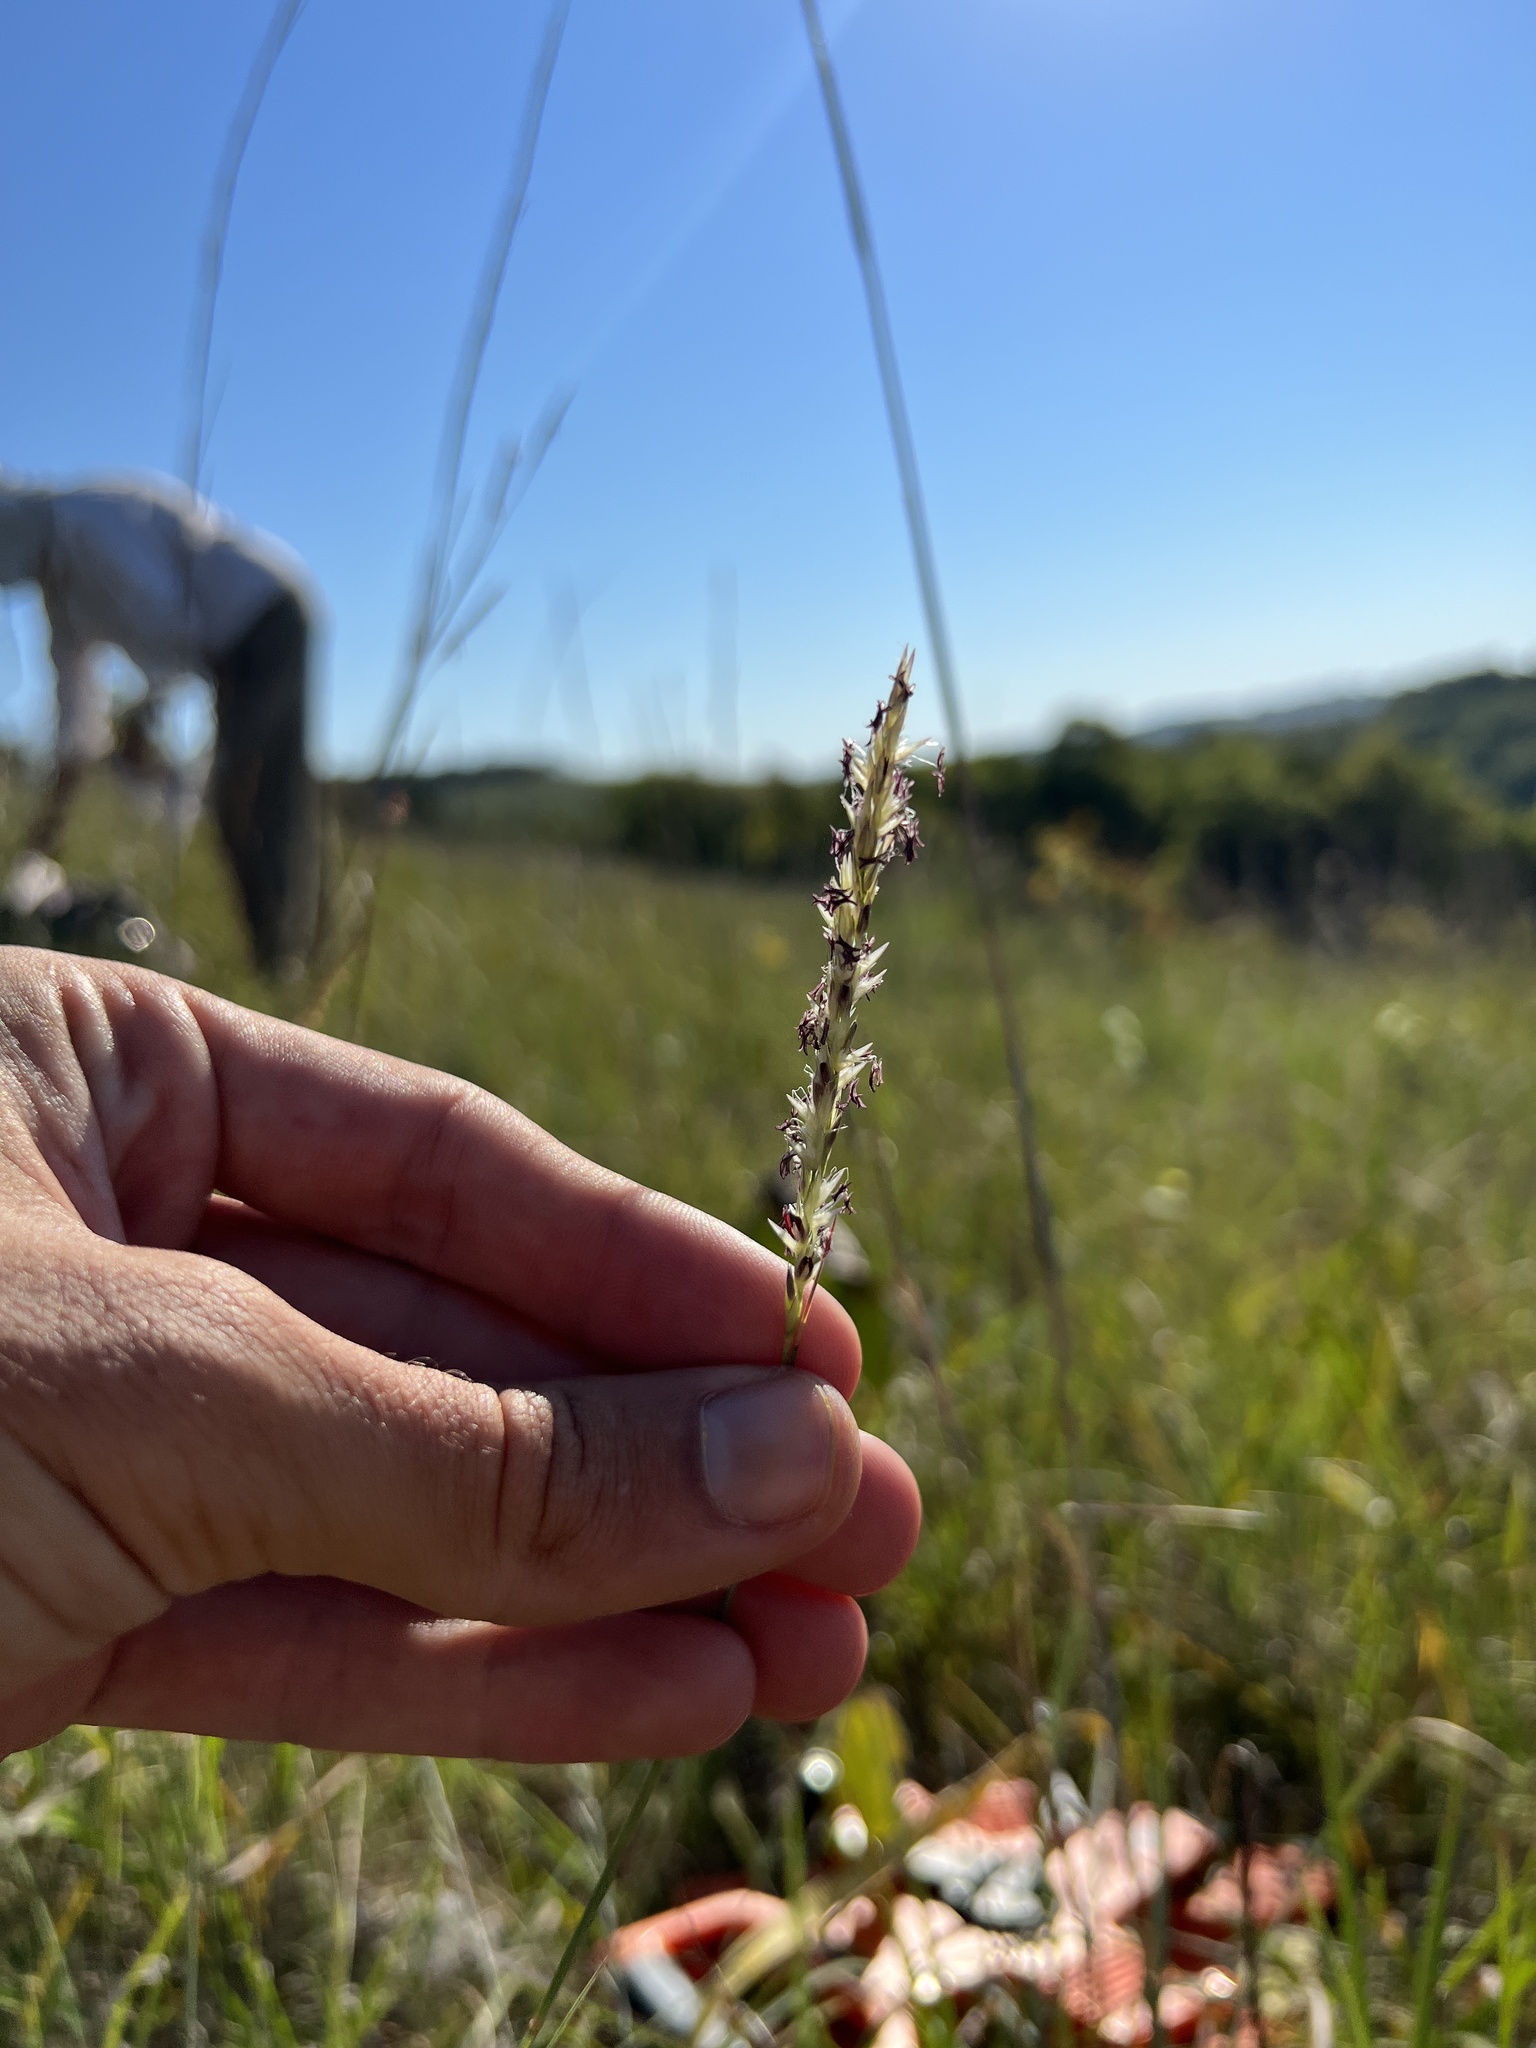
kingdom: Plantae
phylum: Tracheophyta
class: Liliopsida
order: Poales
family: Poaceae
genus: Sporobolus
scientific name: Sporobolus neglectus
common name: Annual dropseed
